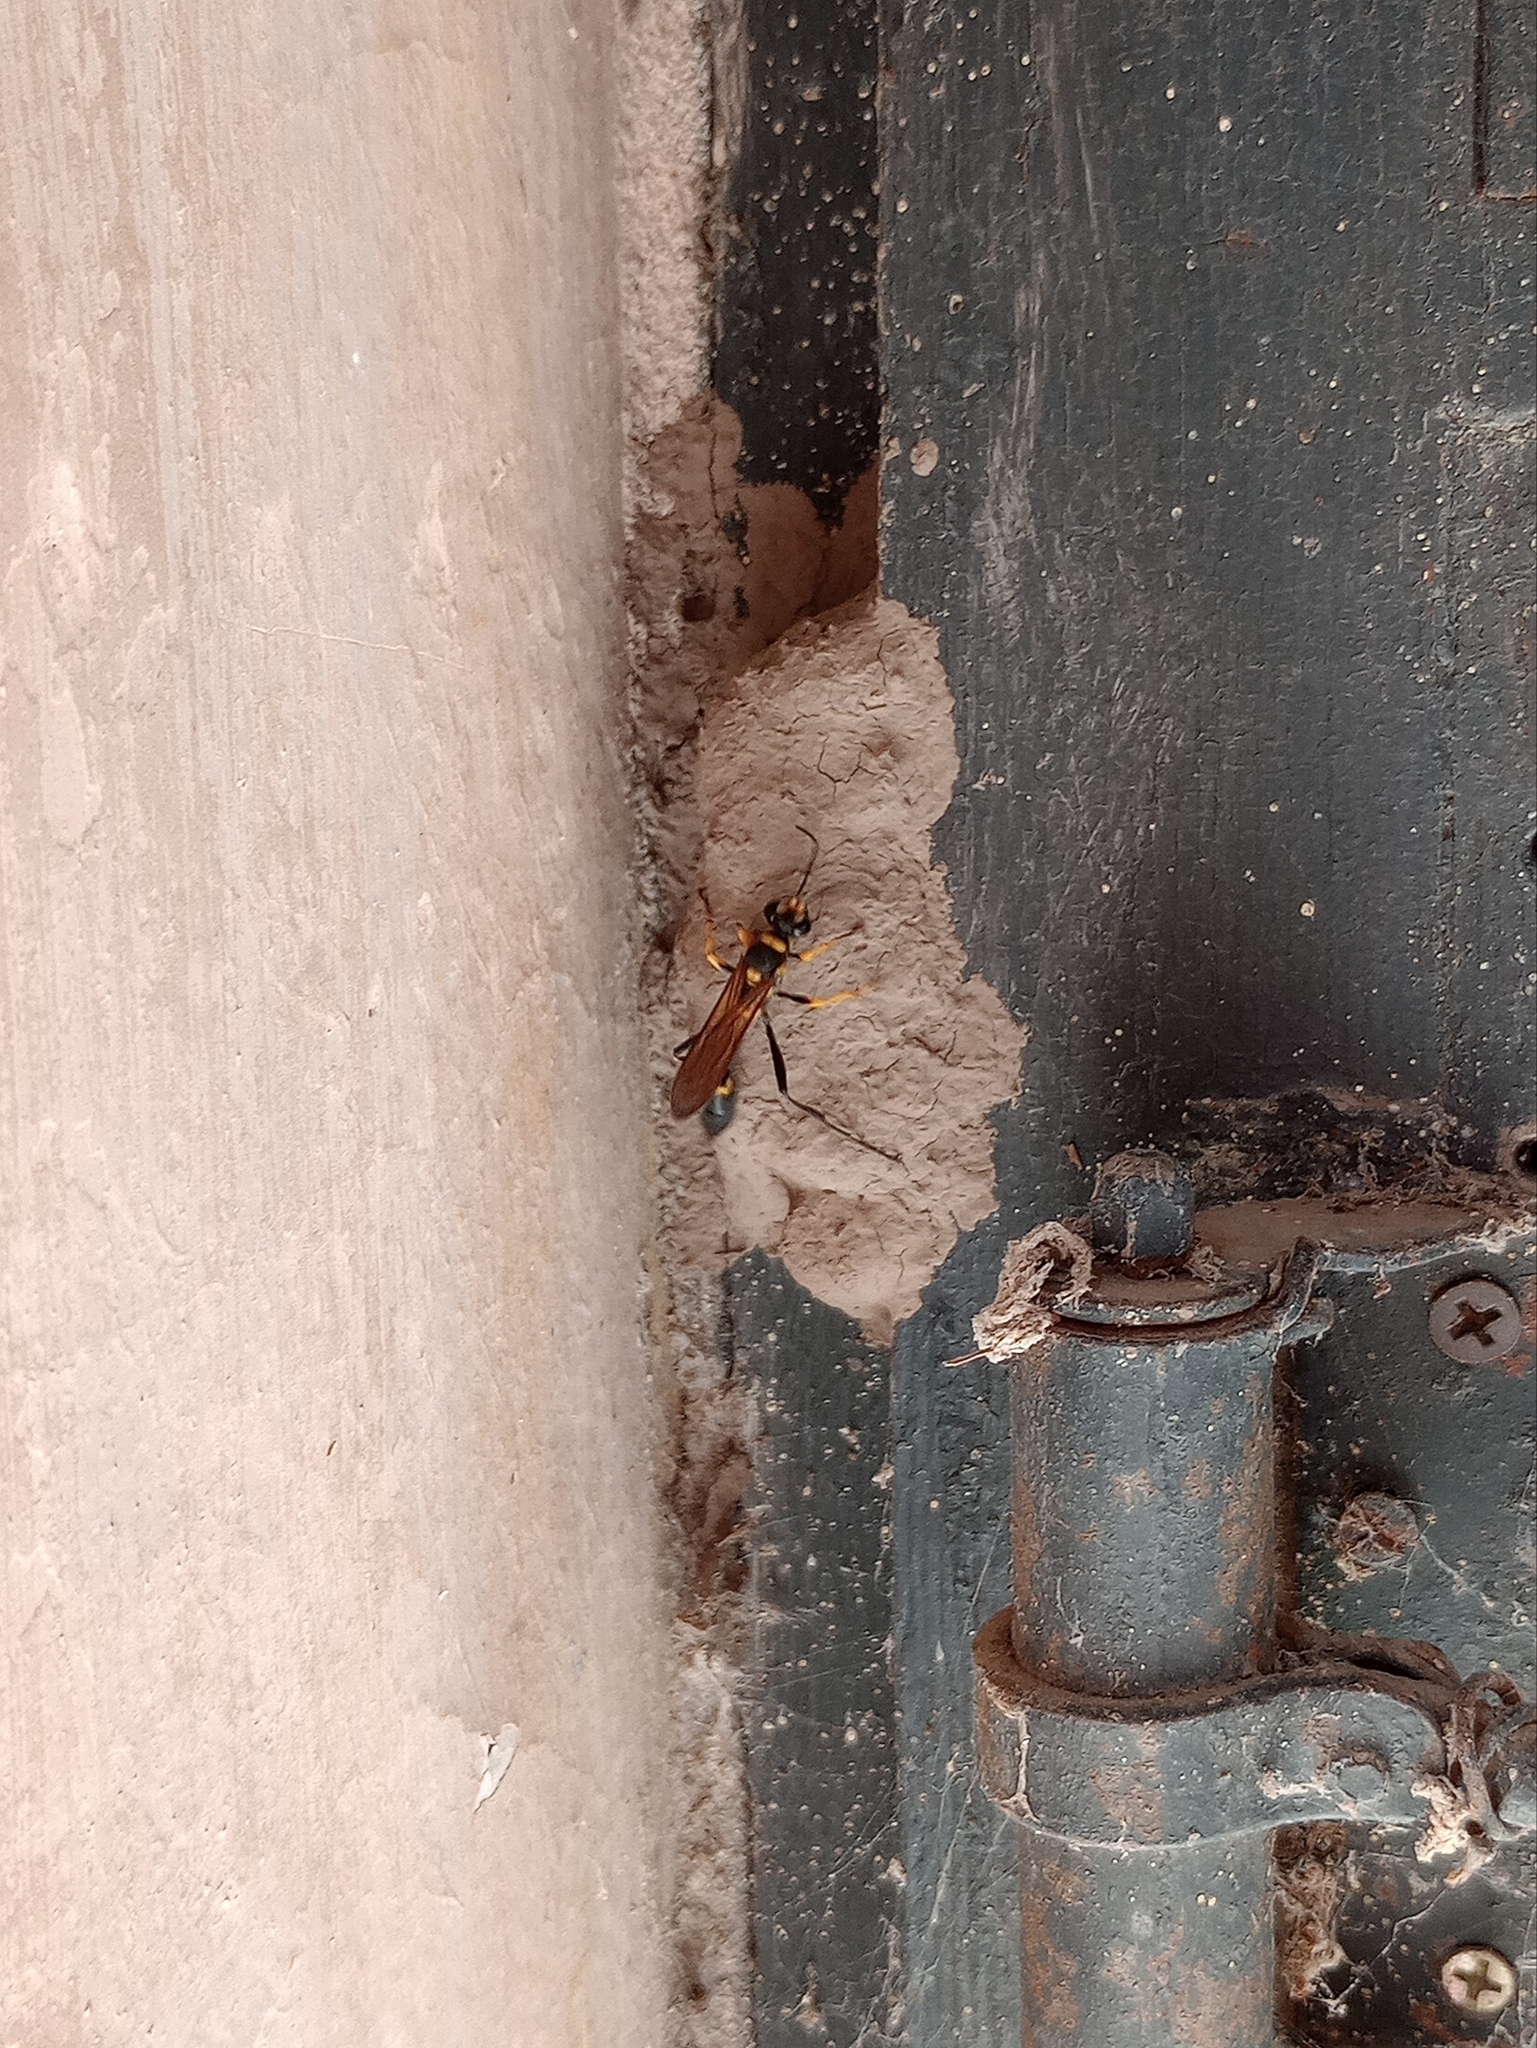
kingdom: Animalia
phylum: Arthropoda
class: Insecta
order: Hymenoptera
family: Sphecidae
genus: Sceliphron
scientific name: Sceliphron asiaticum
